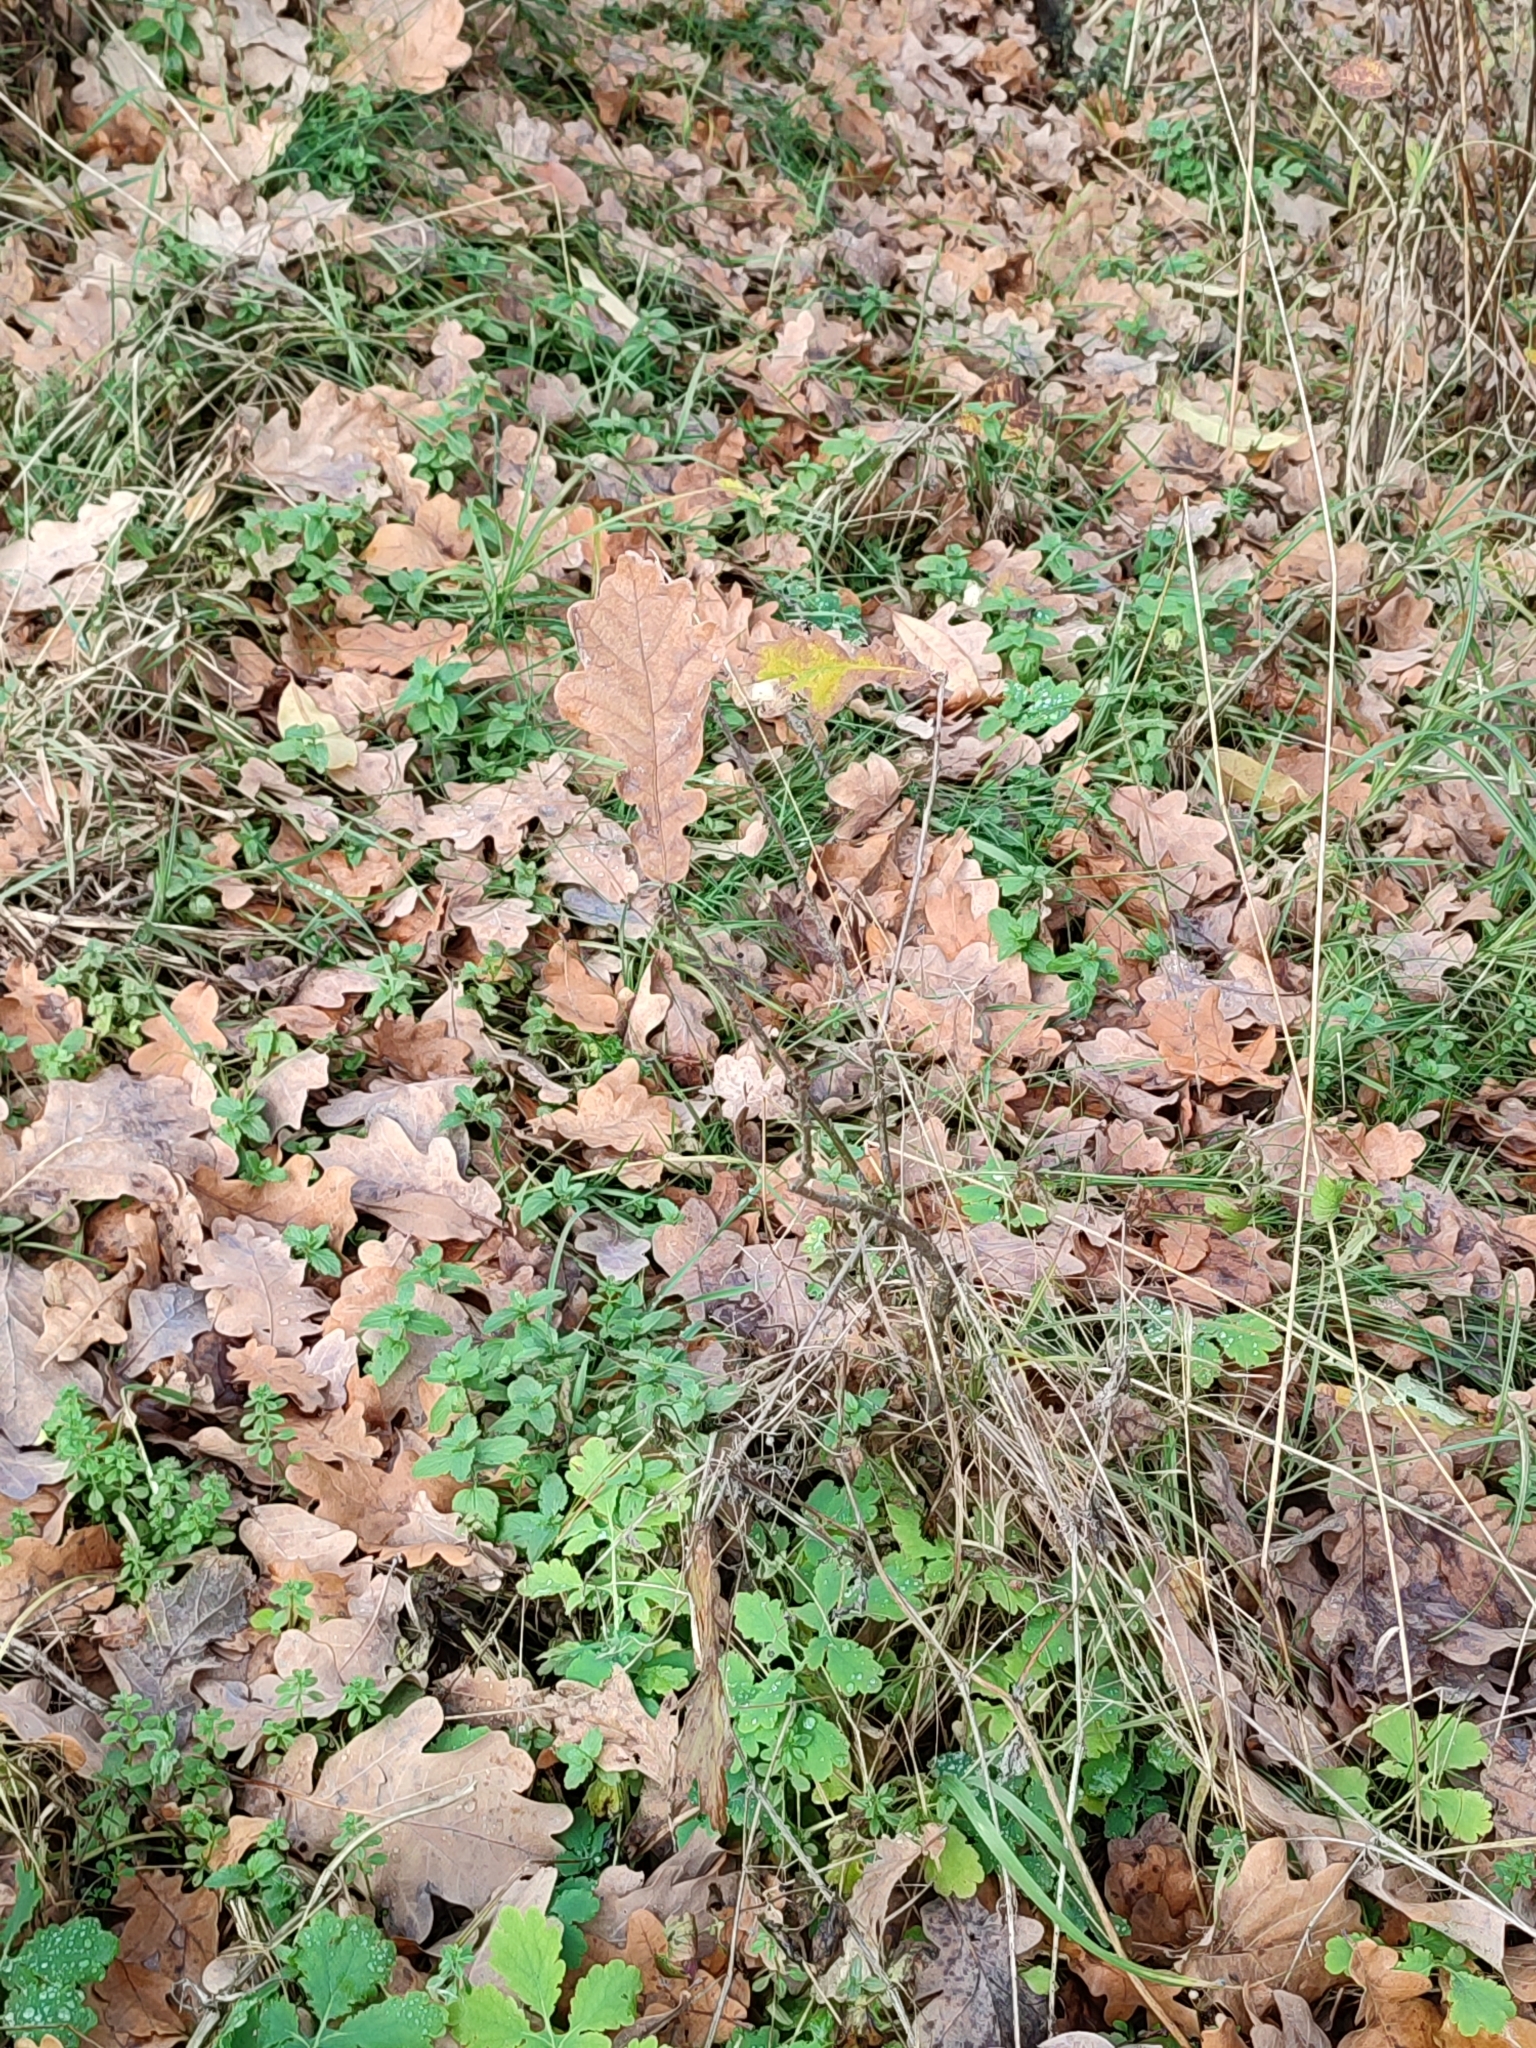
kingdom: Plantae
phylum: Tracheophyta
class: Magnoliopsida
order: Fagales
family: Fagaceae
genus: Quercus
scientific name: Quercus robur
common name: Pedunculate oak
